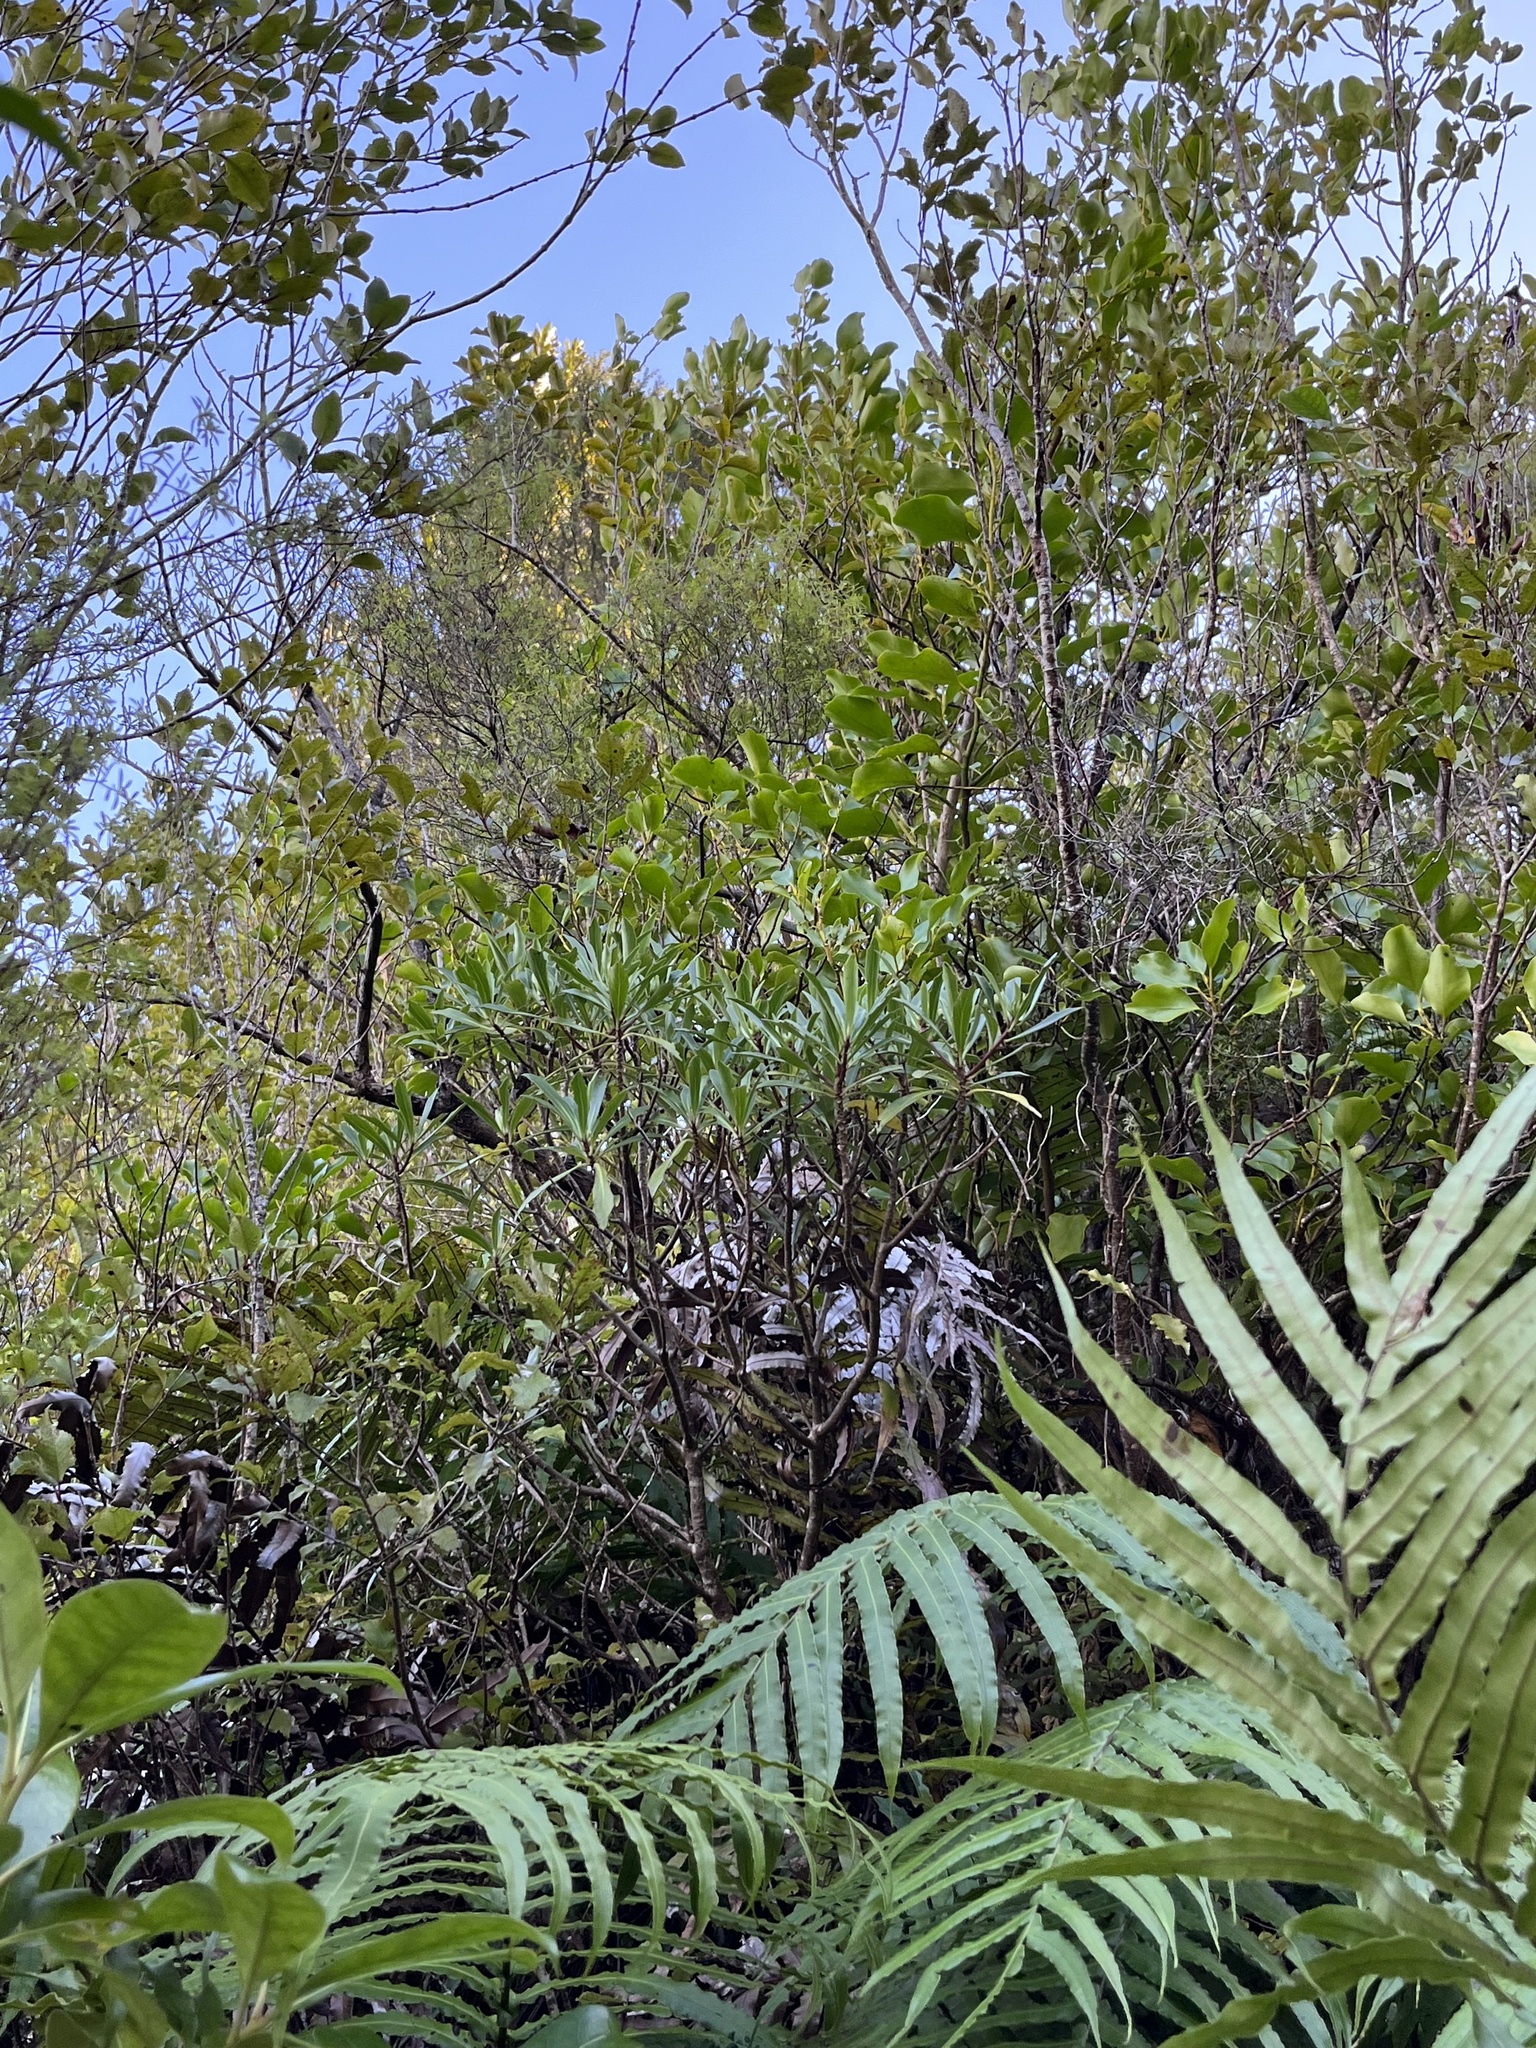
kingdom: Plantae
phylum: Tracheophyta
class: Magnoliopsida
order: Asterales
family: Asteraceae
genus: Brachyglottis
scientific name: Brachyglottis kirkii
